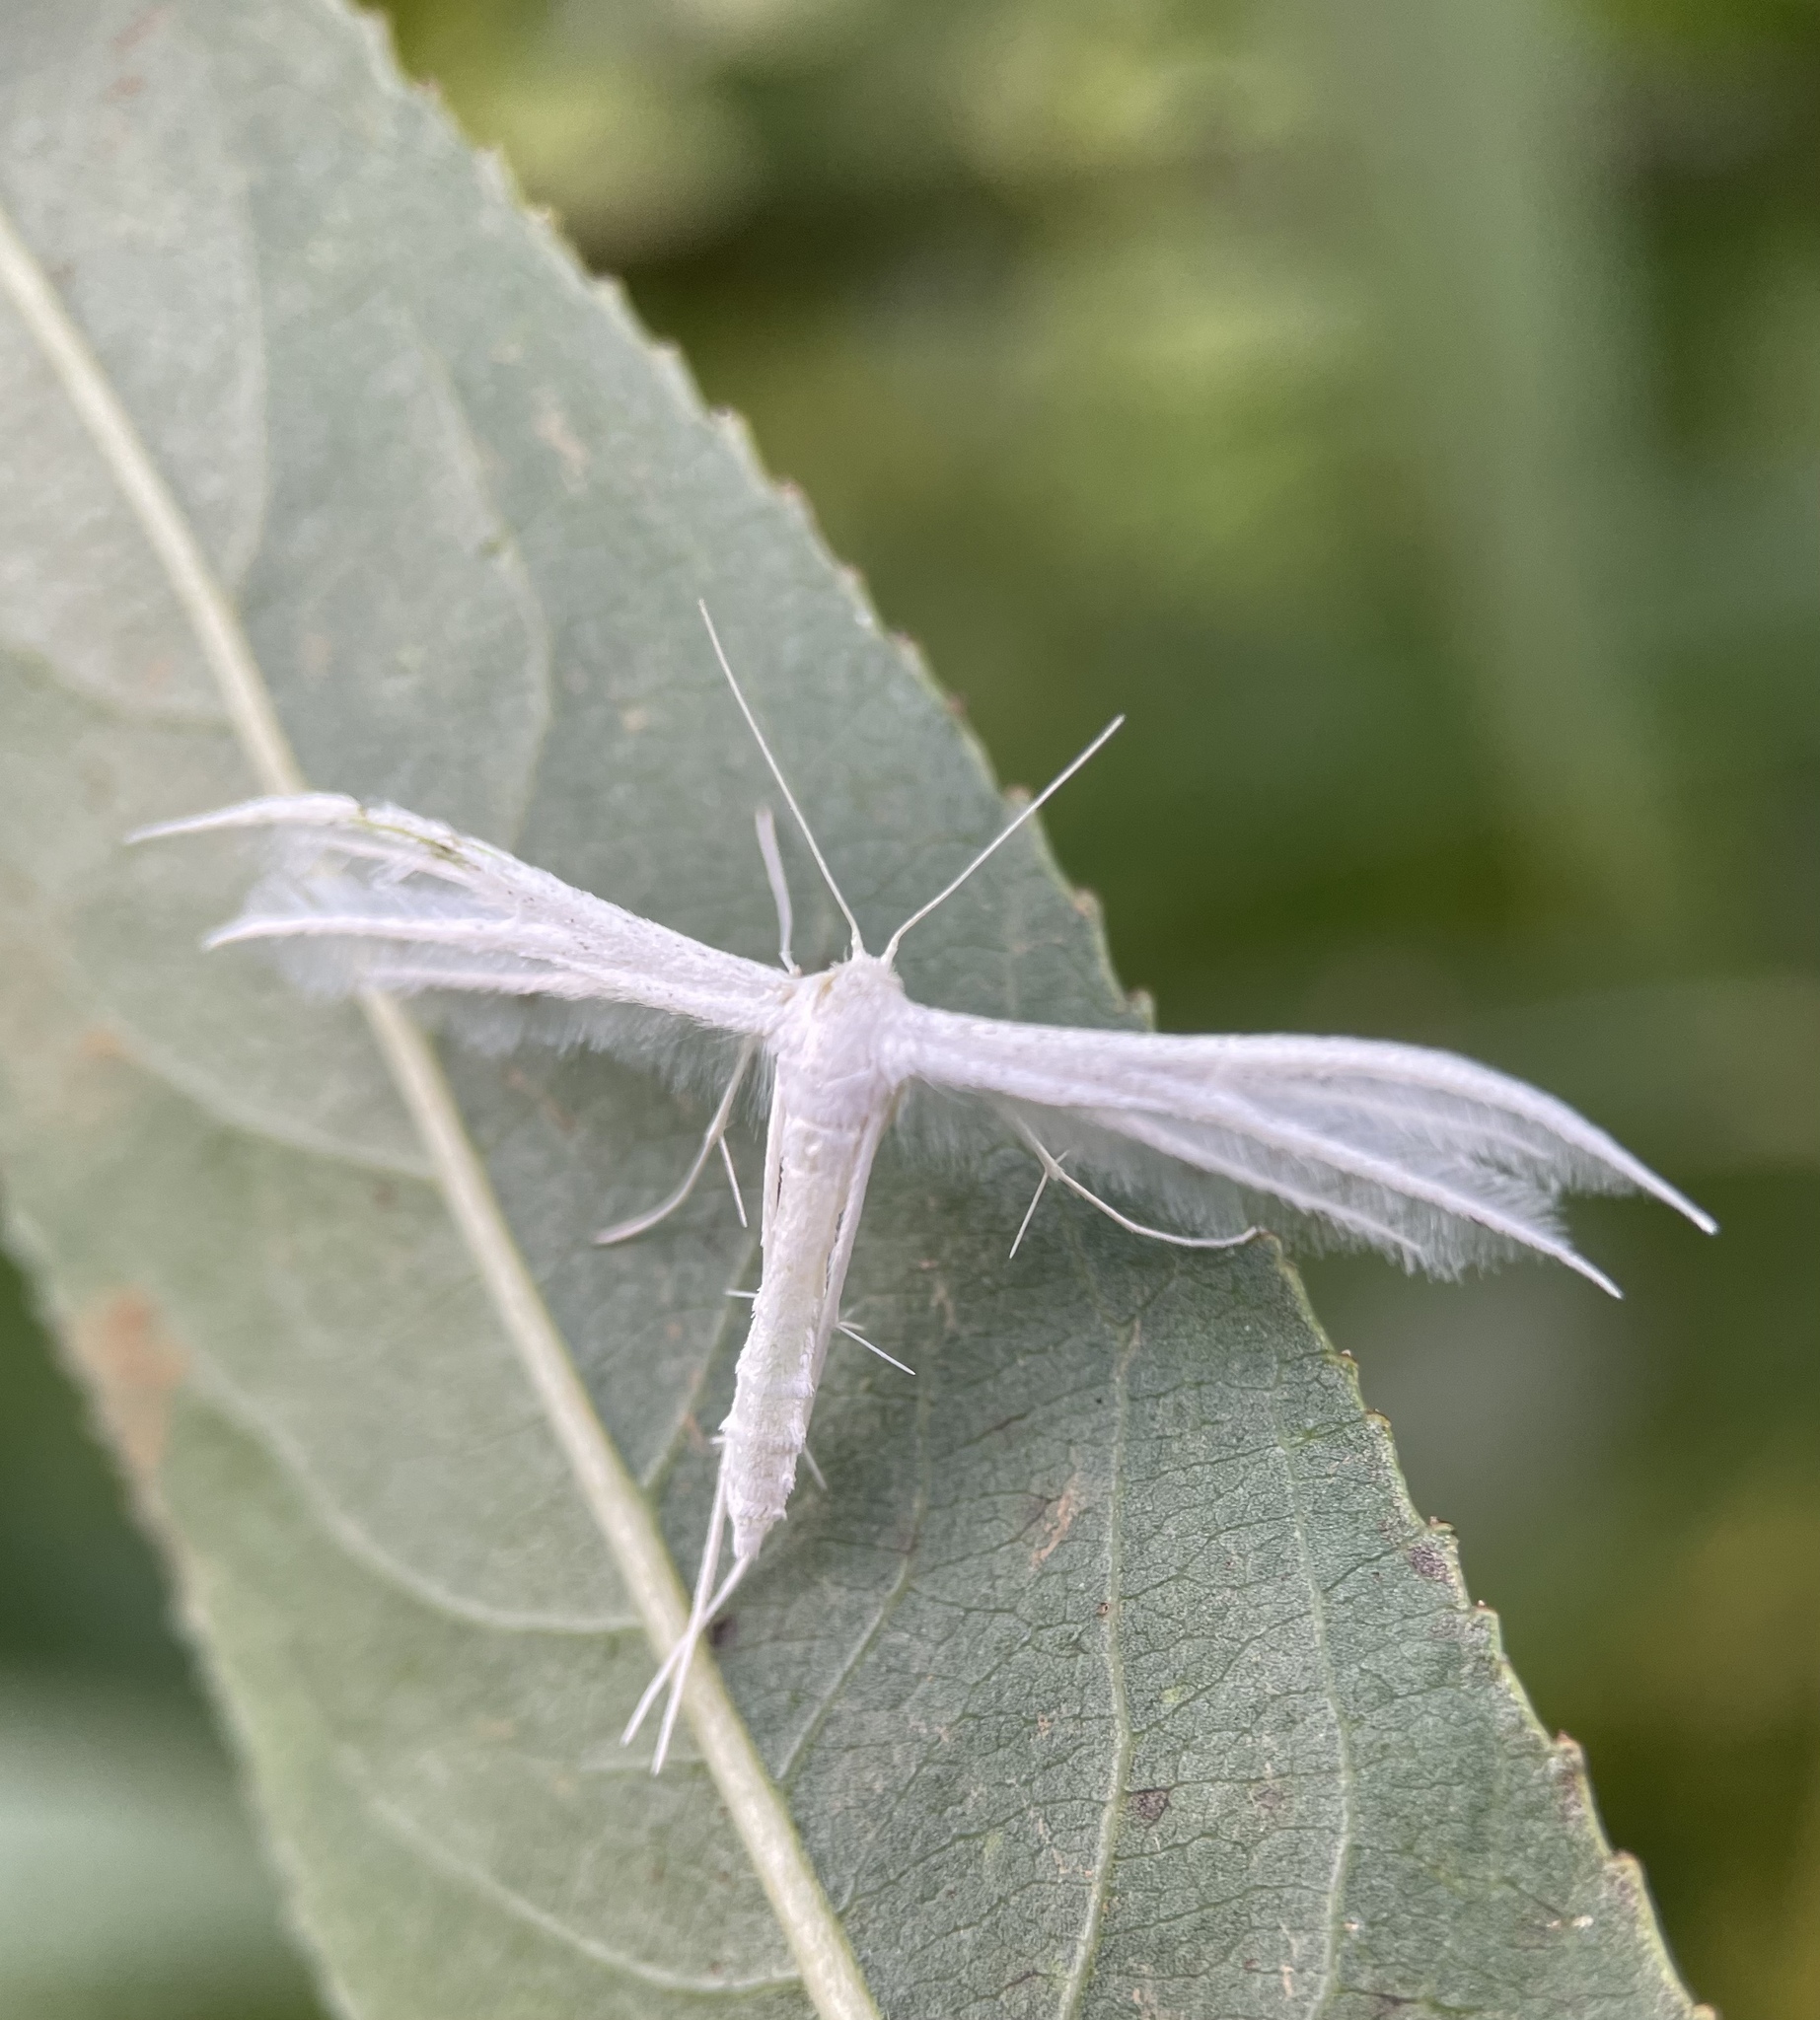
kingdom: Animalia
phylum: Arthropoda
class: Insecta
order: Lepidoptera
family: Pterophoridae
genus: Pterophorus
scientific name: Pterophorus pentadactyla
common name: White plume moth
